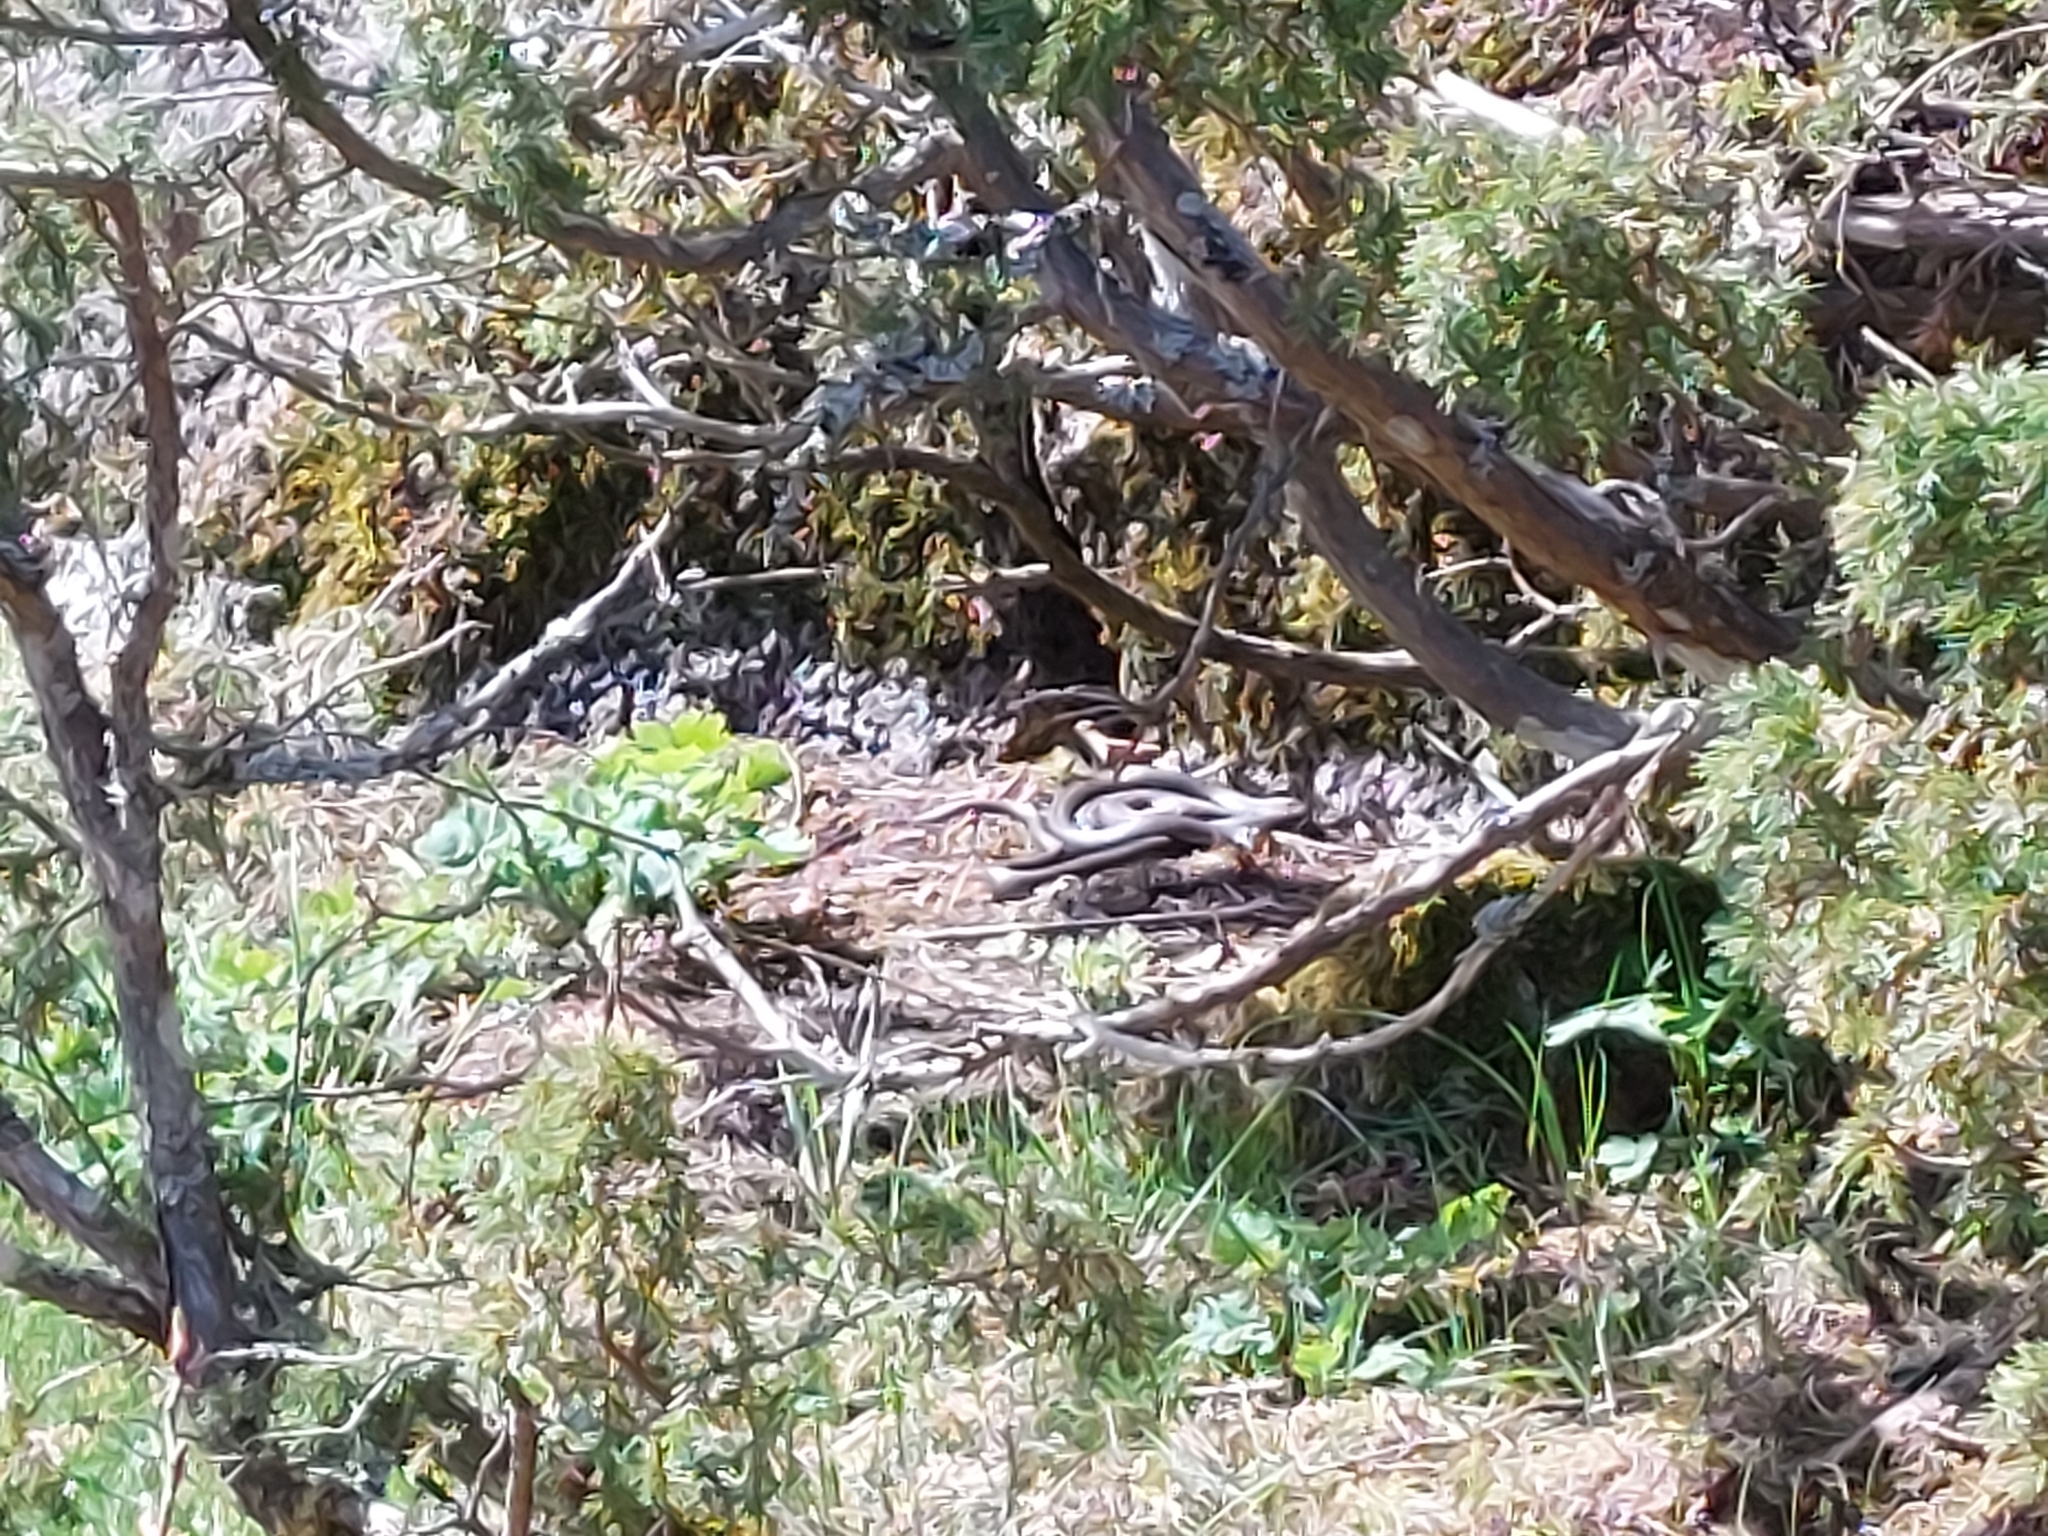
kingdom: Animalia
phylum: Chordata
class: Squamata
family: Colubridae
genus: Natrix
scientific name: Natrix natrix
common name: Grass snake
